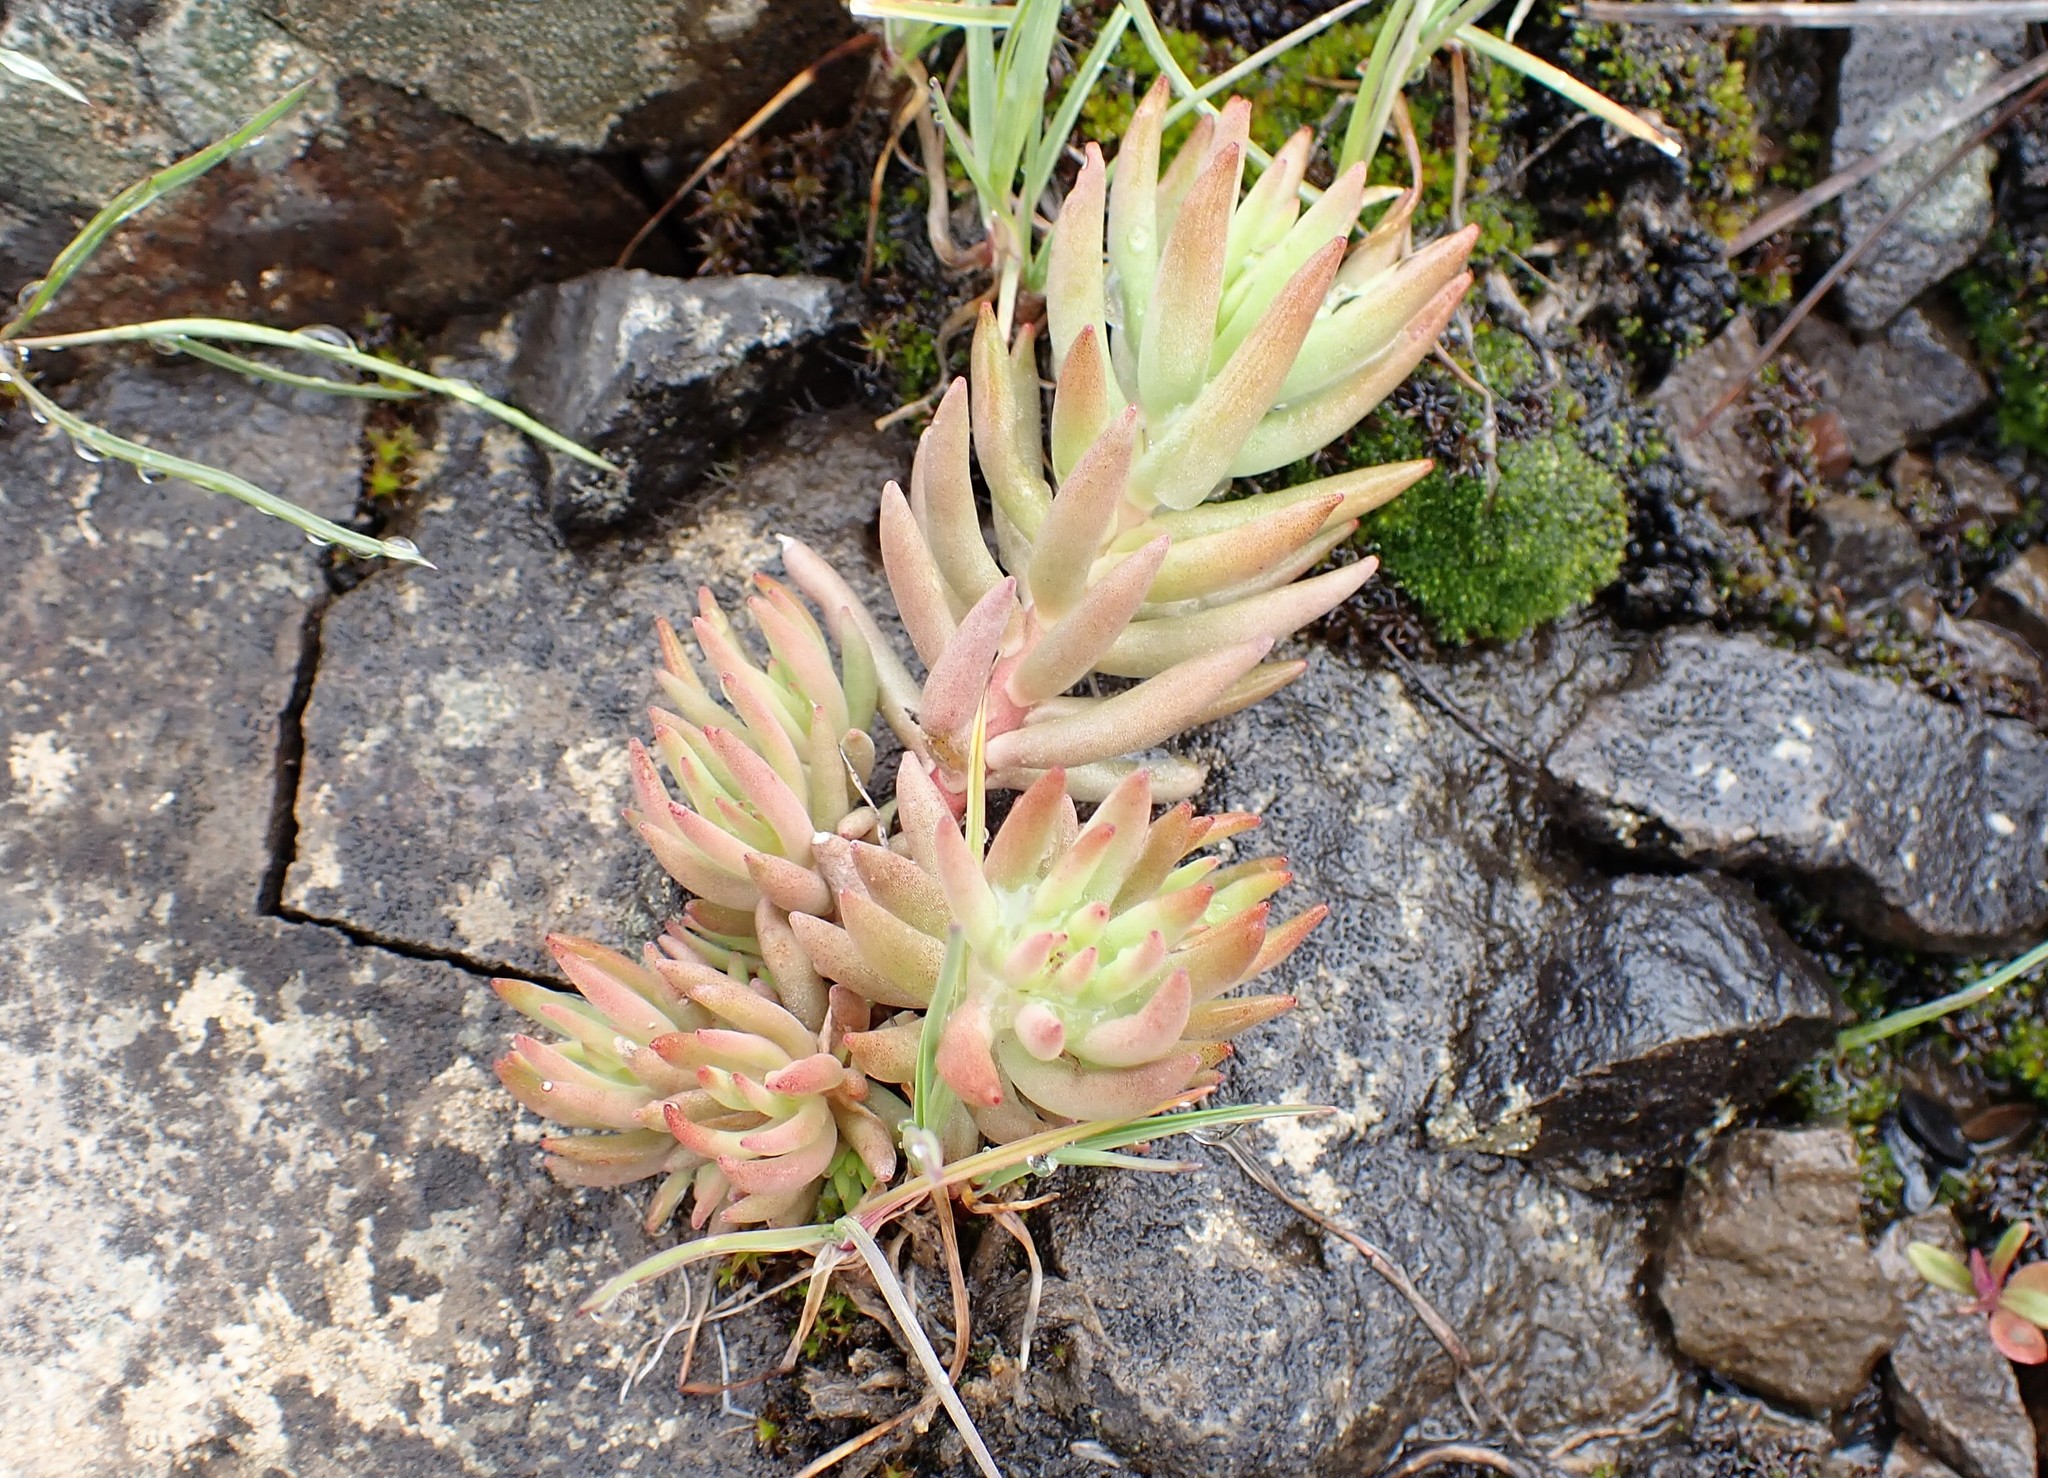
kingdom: Plantae
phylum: Tracheophyta
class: Magnoliopsida
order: Saxifragales
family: Crassulaceae
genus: Sedum
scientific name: Sedum lanceolatum
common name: Common stonecrop
